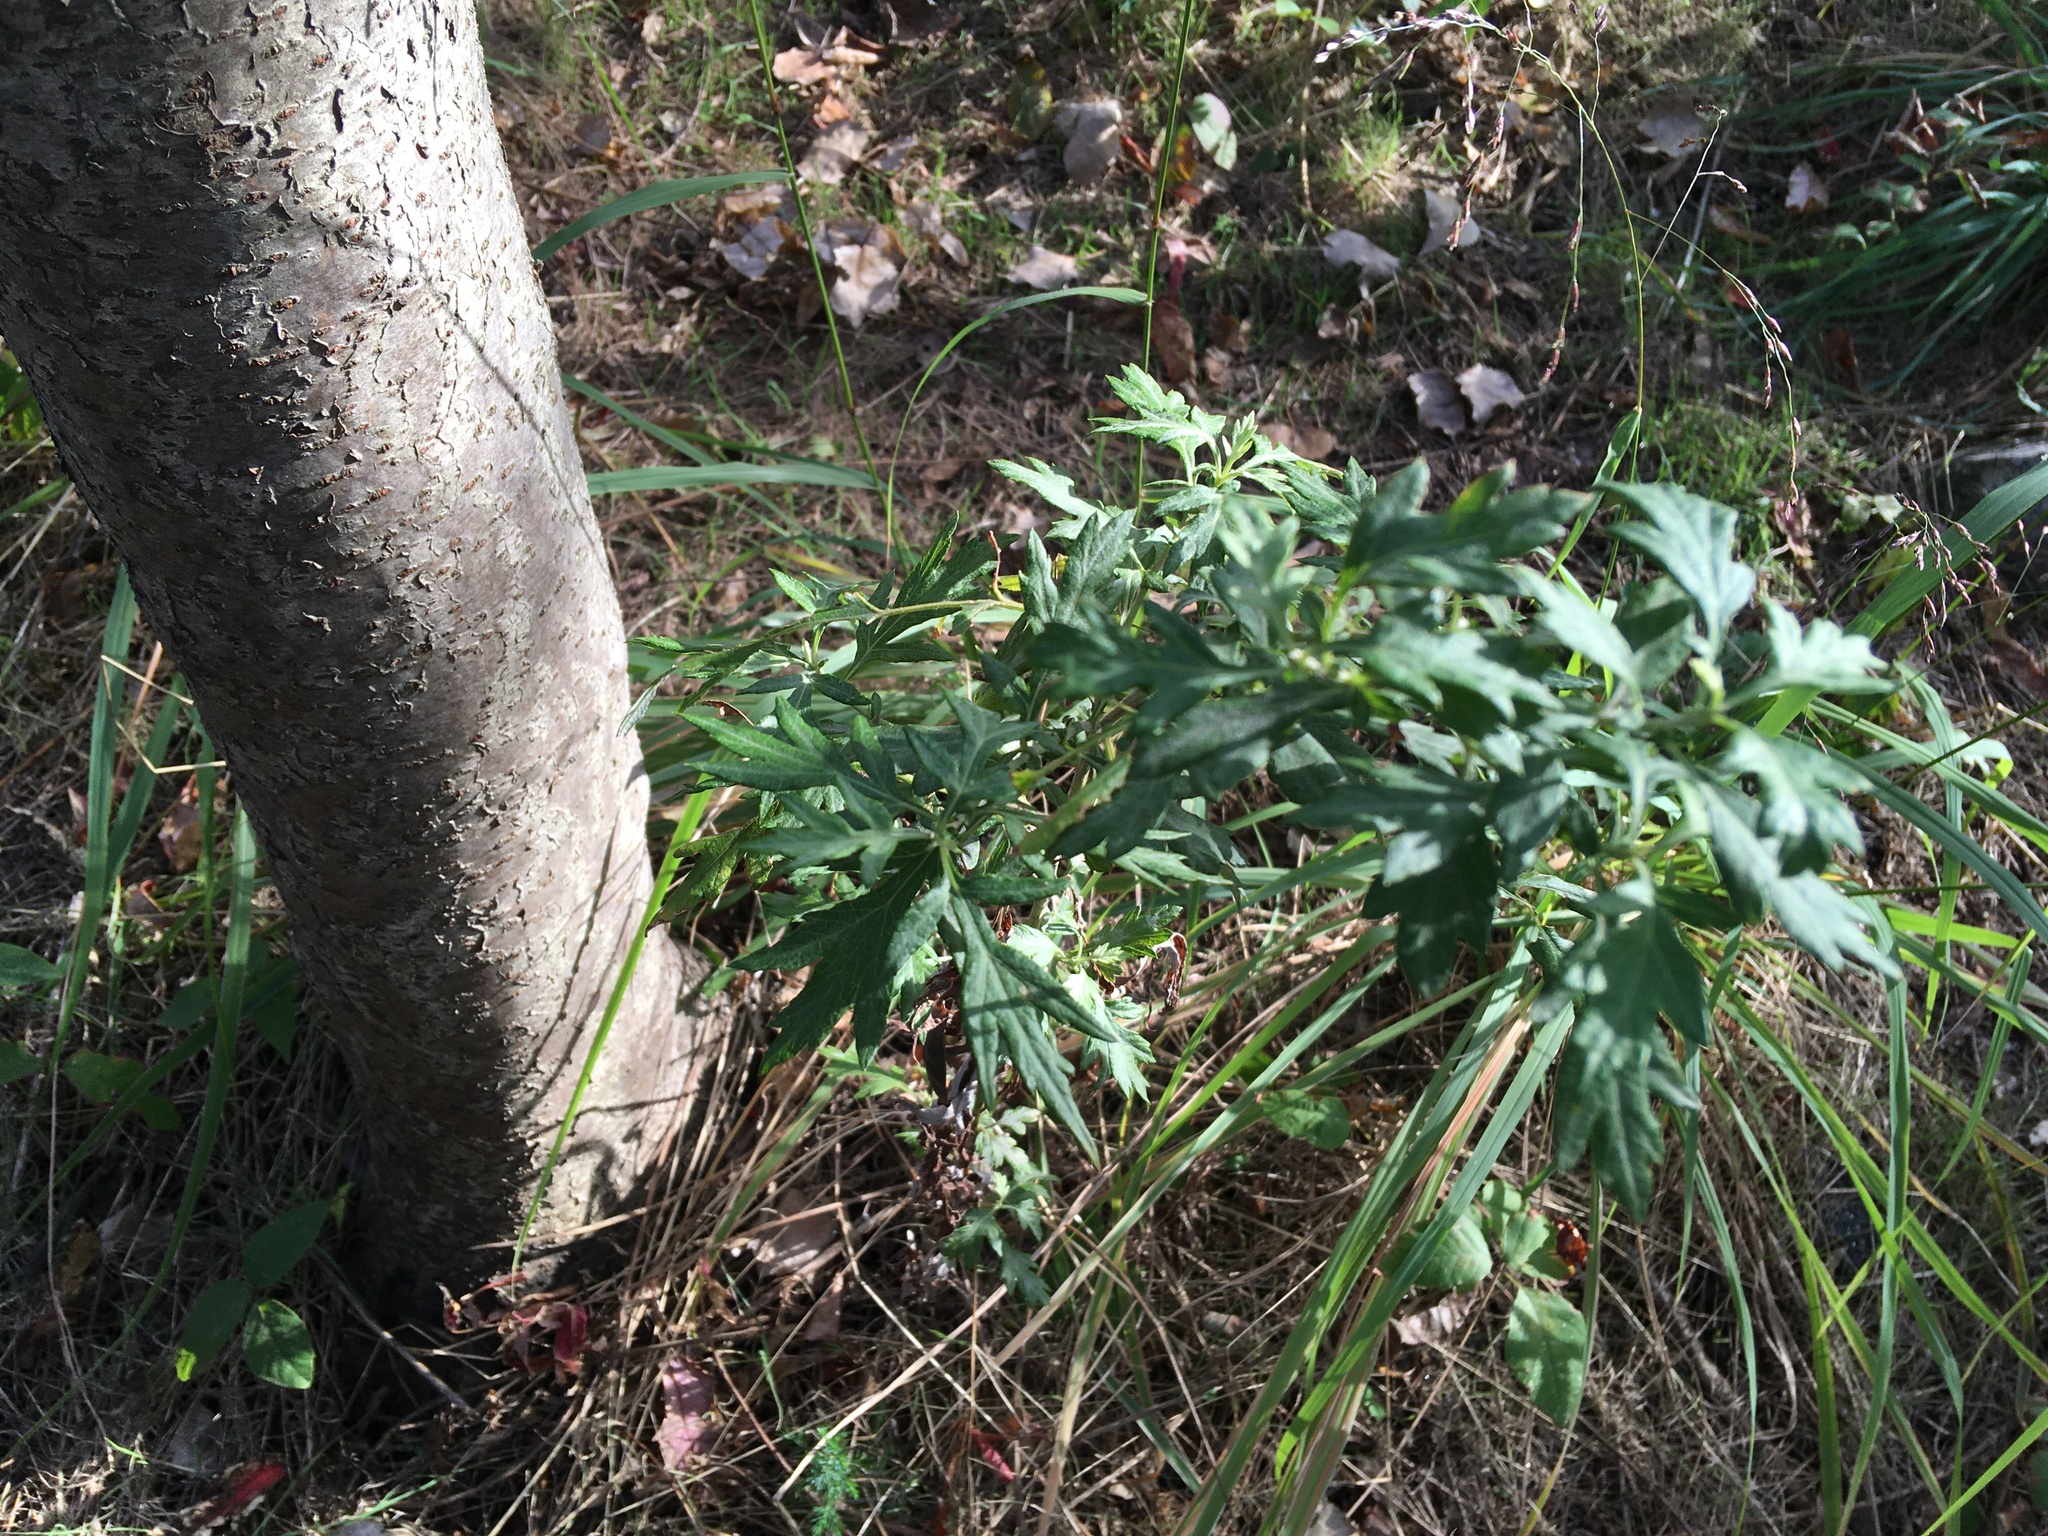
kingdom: Plantae
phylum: Tracheophyta
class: Magnoliopsida
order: Asterales
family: Asteraceae
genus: Artemisia
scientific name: Artemisia vulgaris
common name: Mugwort
